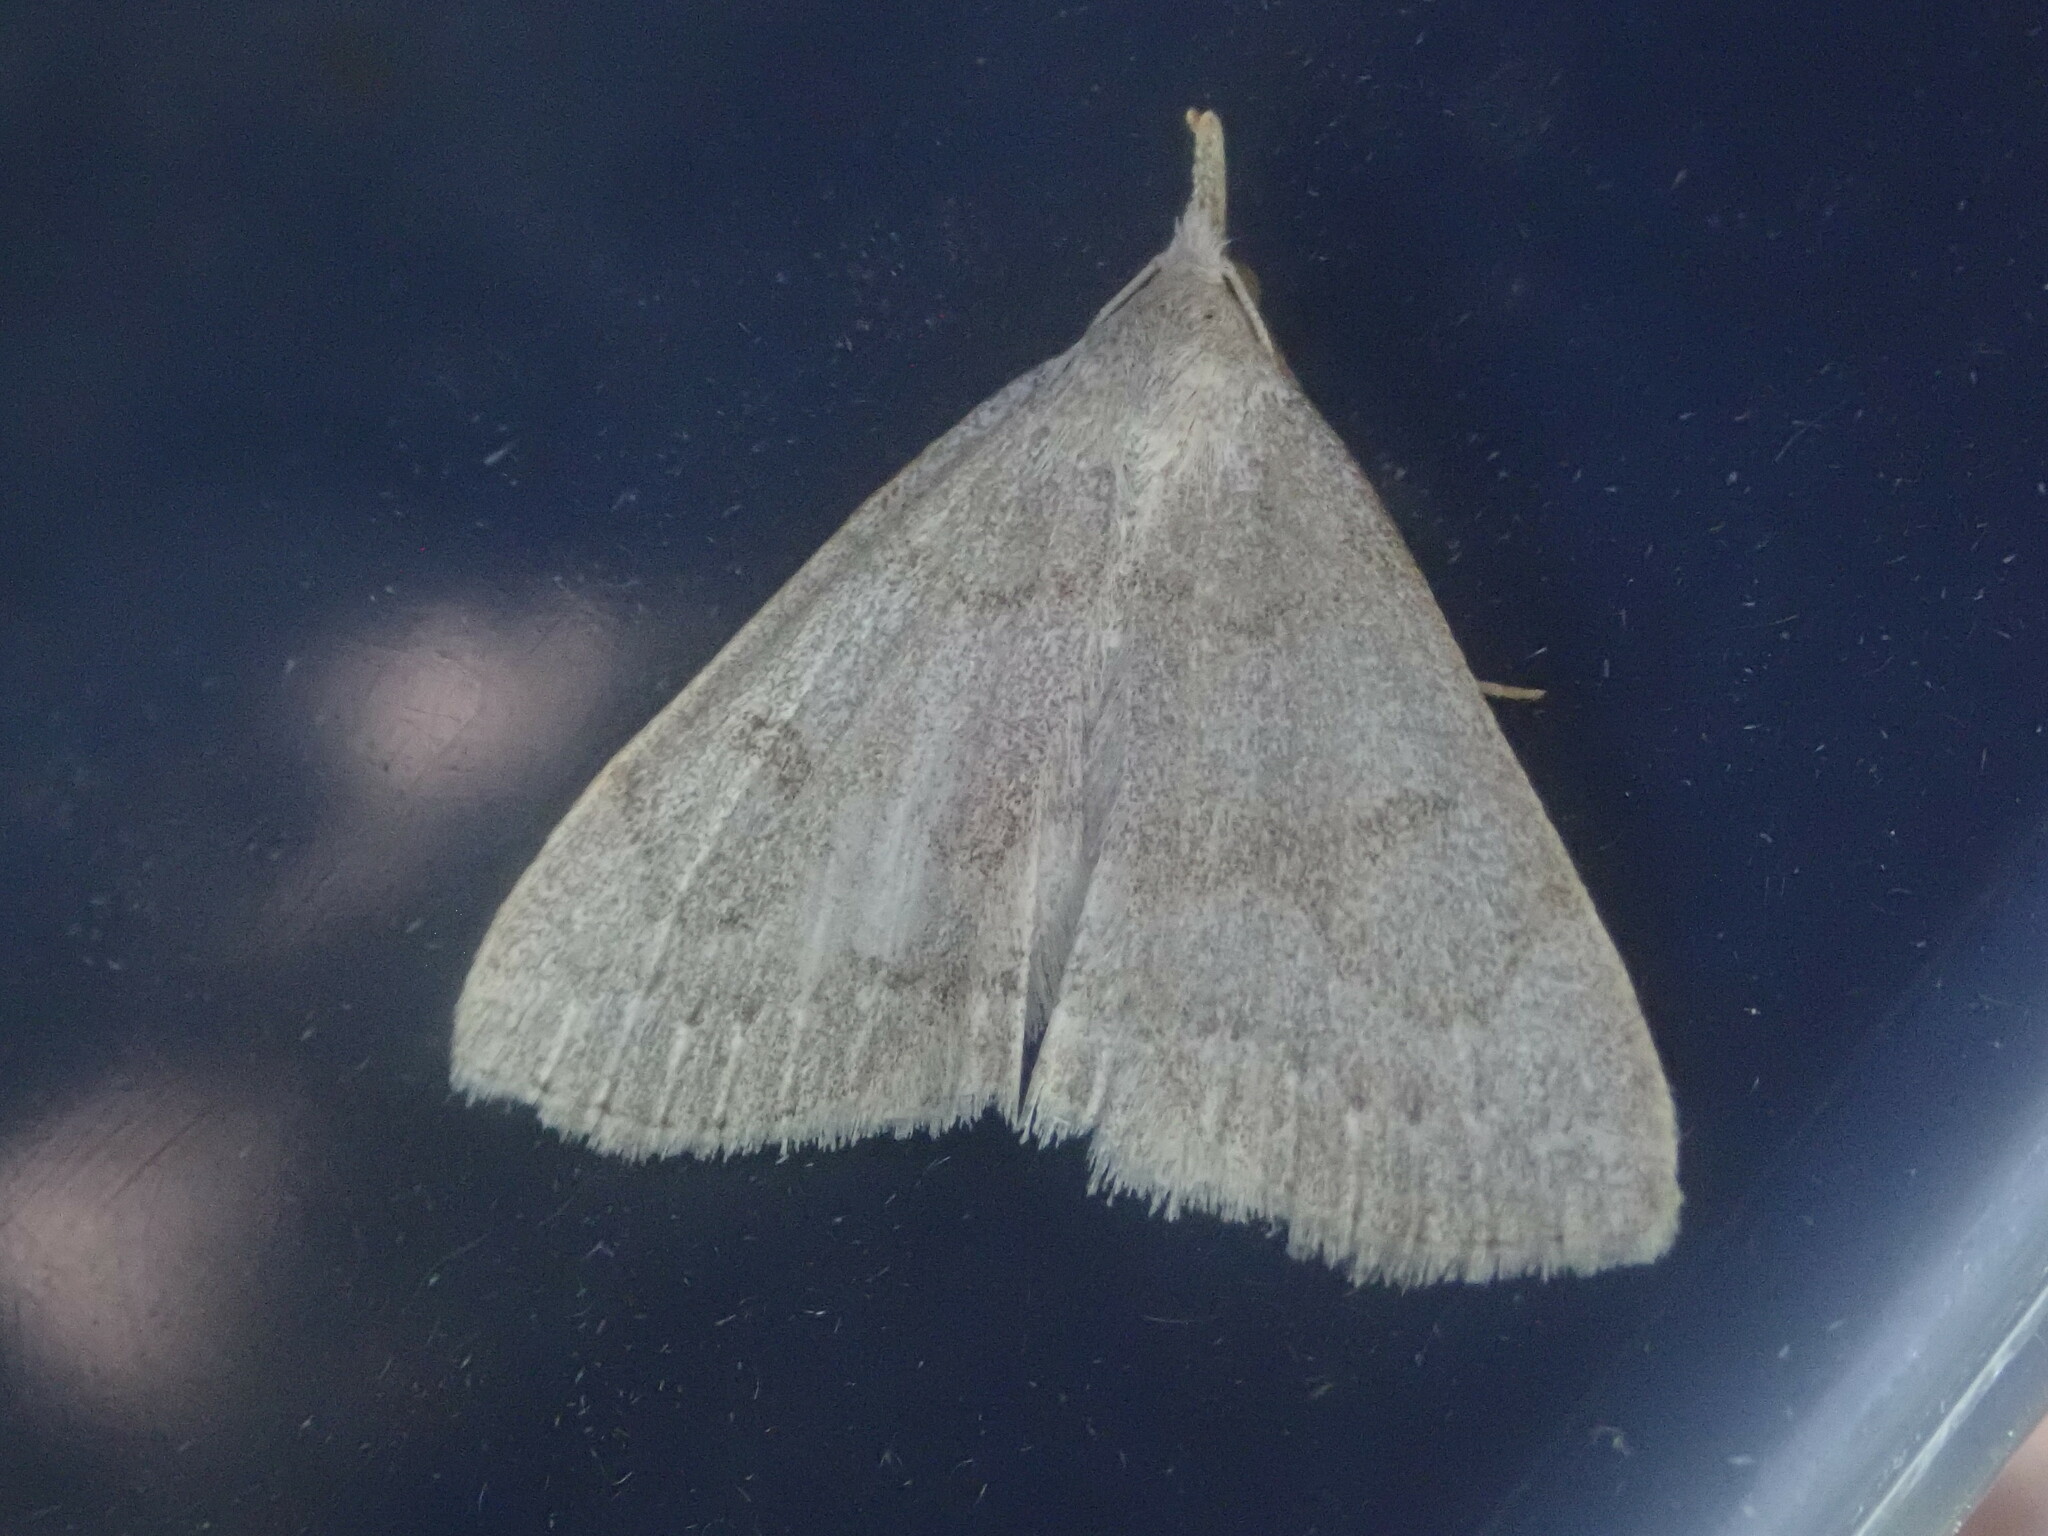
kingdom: Animalia
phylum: Arthropoda
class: Insecta
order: Lepidoptera
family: Erebidae
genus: Macrochilo
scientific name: Macrochilo morbidalis
